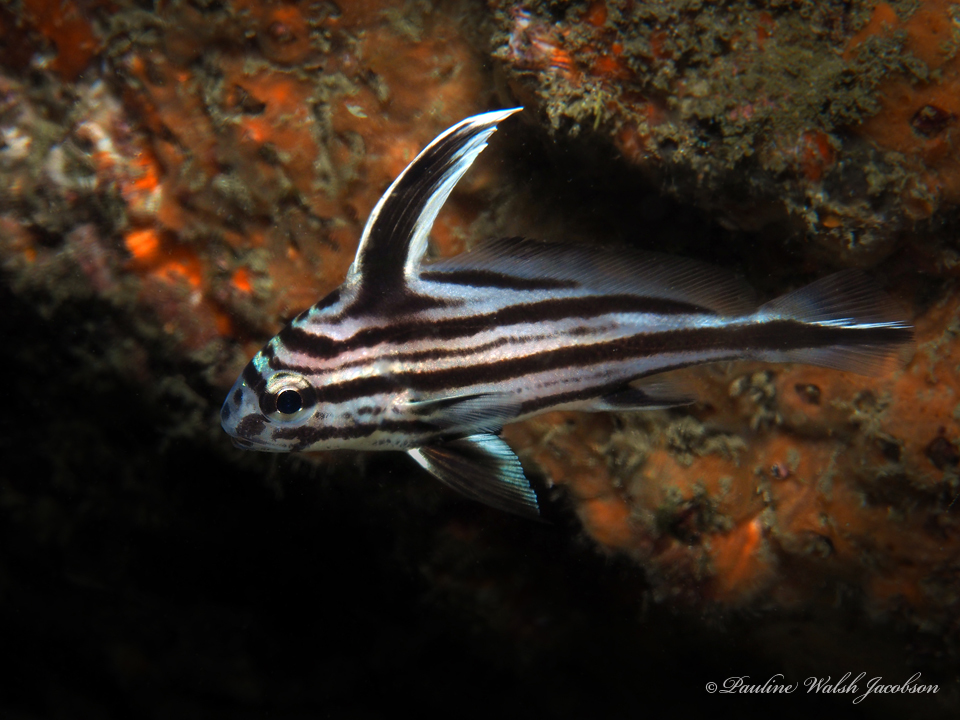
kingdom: Animalia
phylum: Chordata
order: Perciformes
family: Sciaenidae
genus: Pareques
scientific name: Pareques acuminatus
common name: High-hat
